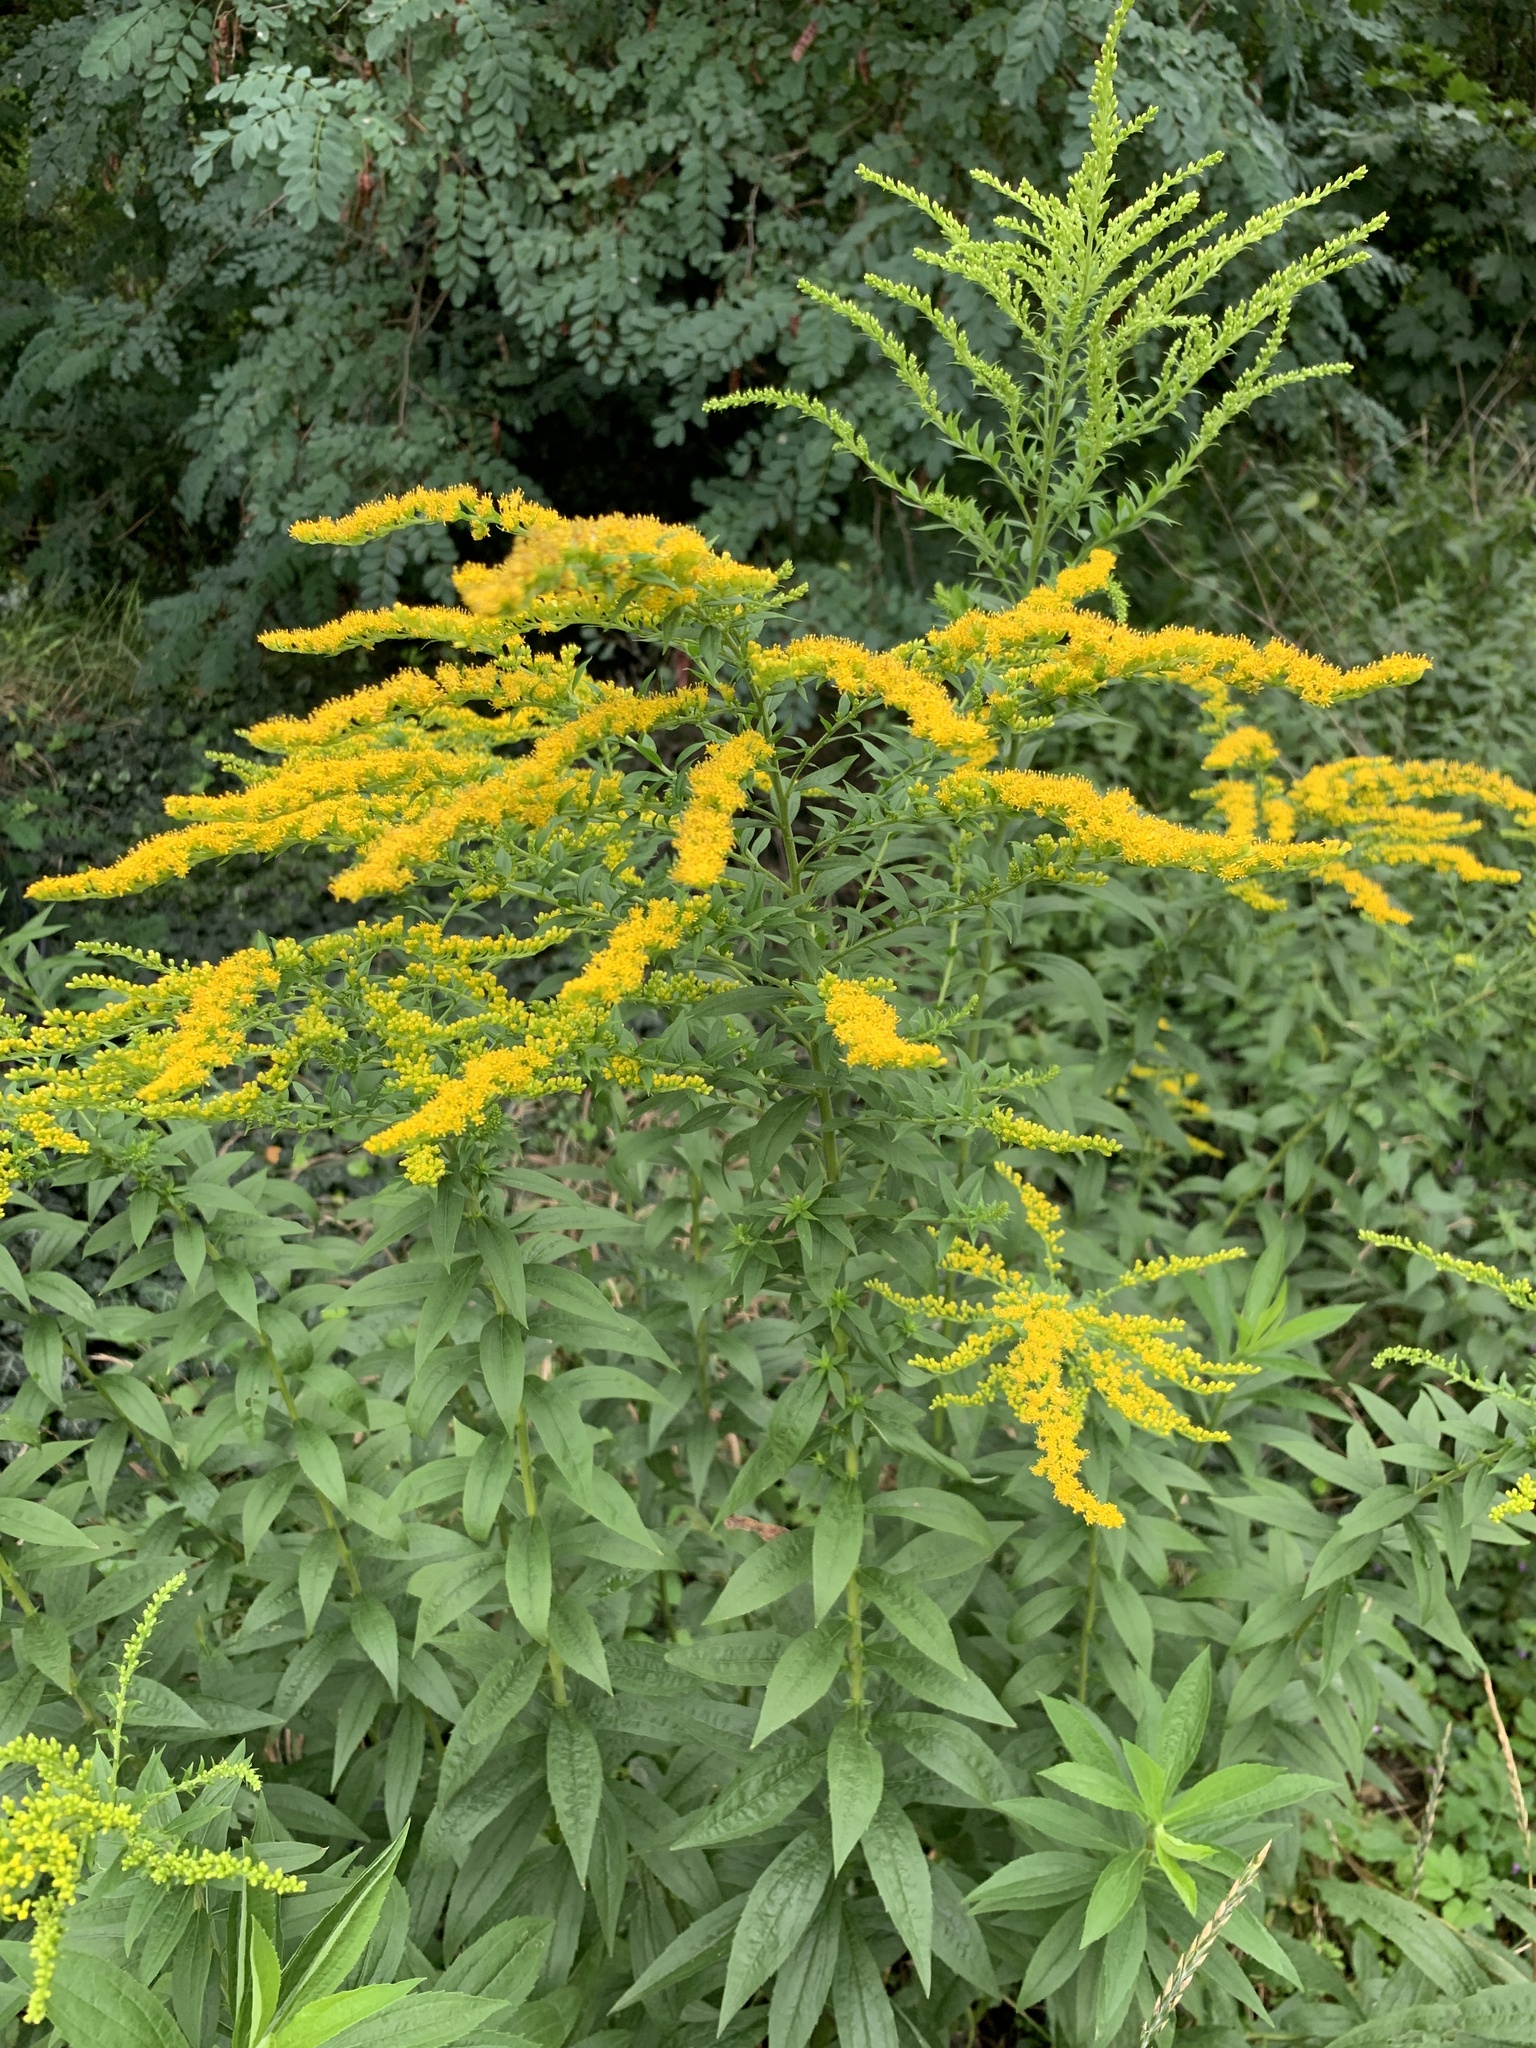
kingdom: Plantae
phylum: Tracheophyta
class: Magnoliopsida
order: Asterales
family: Asteraceae
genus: Solidago
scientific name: Solidago canadensis
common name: Canada goldenrod
